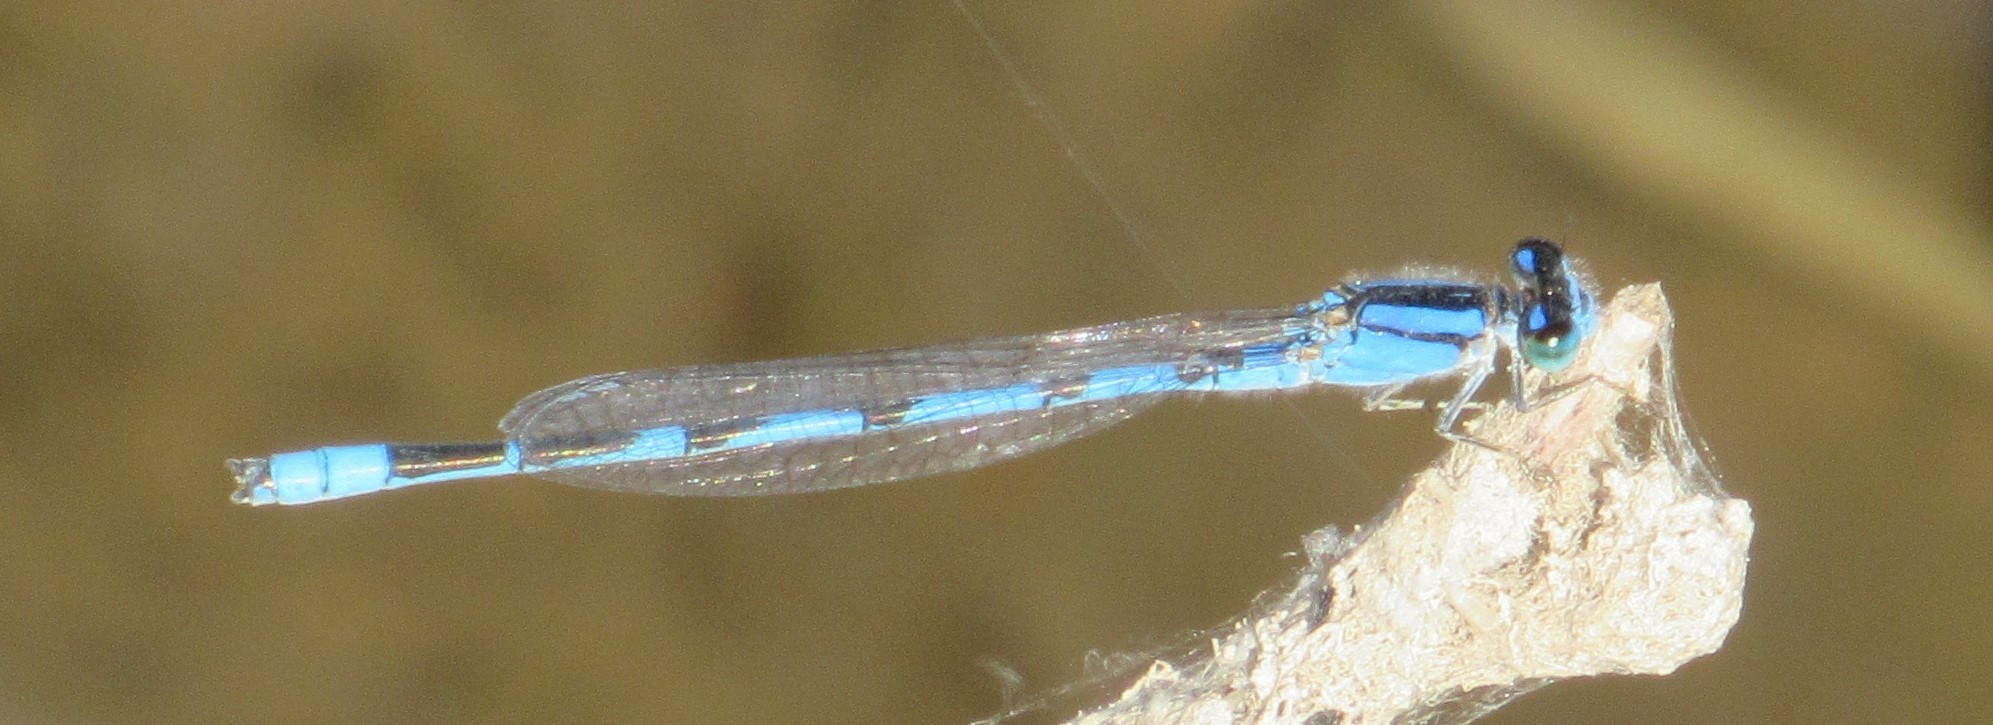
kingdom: Animalia
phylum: Arthropoda
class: Insecta
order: Odonata
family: Coenagrionidae
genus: Enallagma
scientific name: Enallagma civile
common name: Damselfly
